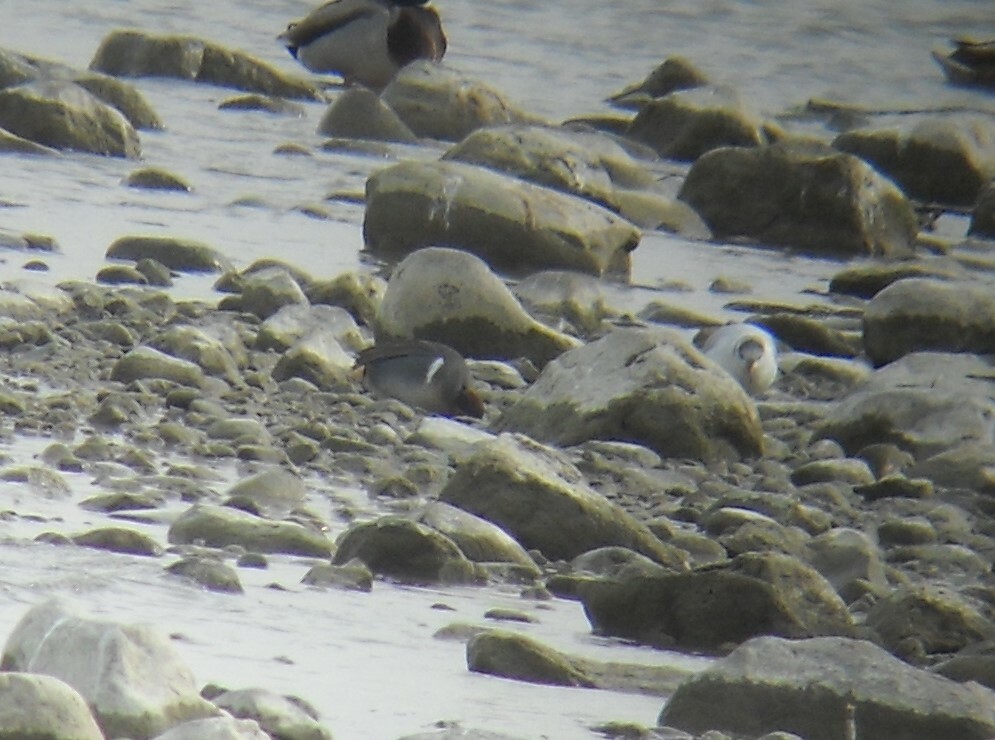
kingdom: Animalia
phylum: Chordata
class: Aves
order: Anseriformes
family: Anatidae
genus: Anas
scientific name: Anas carolinensis
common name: Green-winged teal
